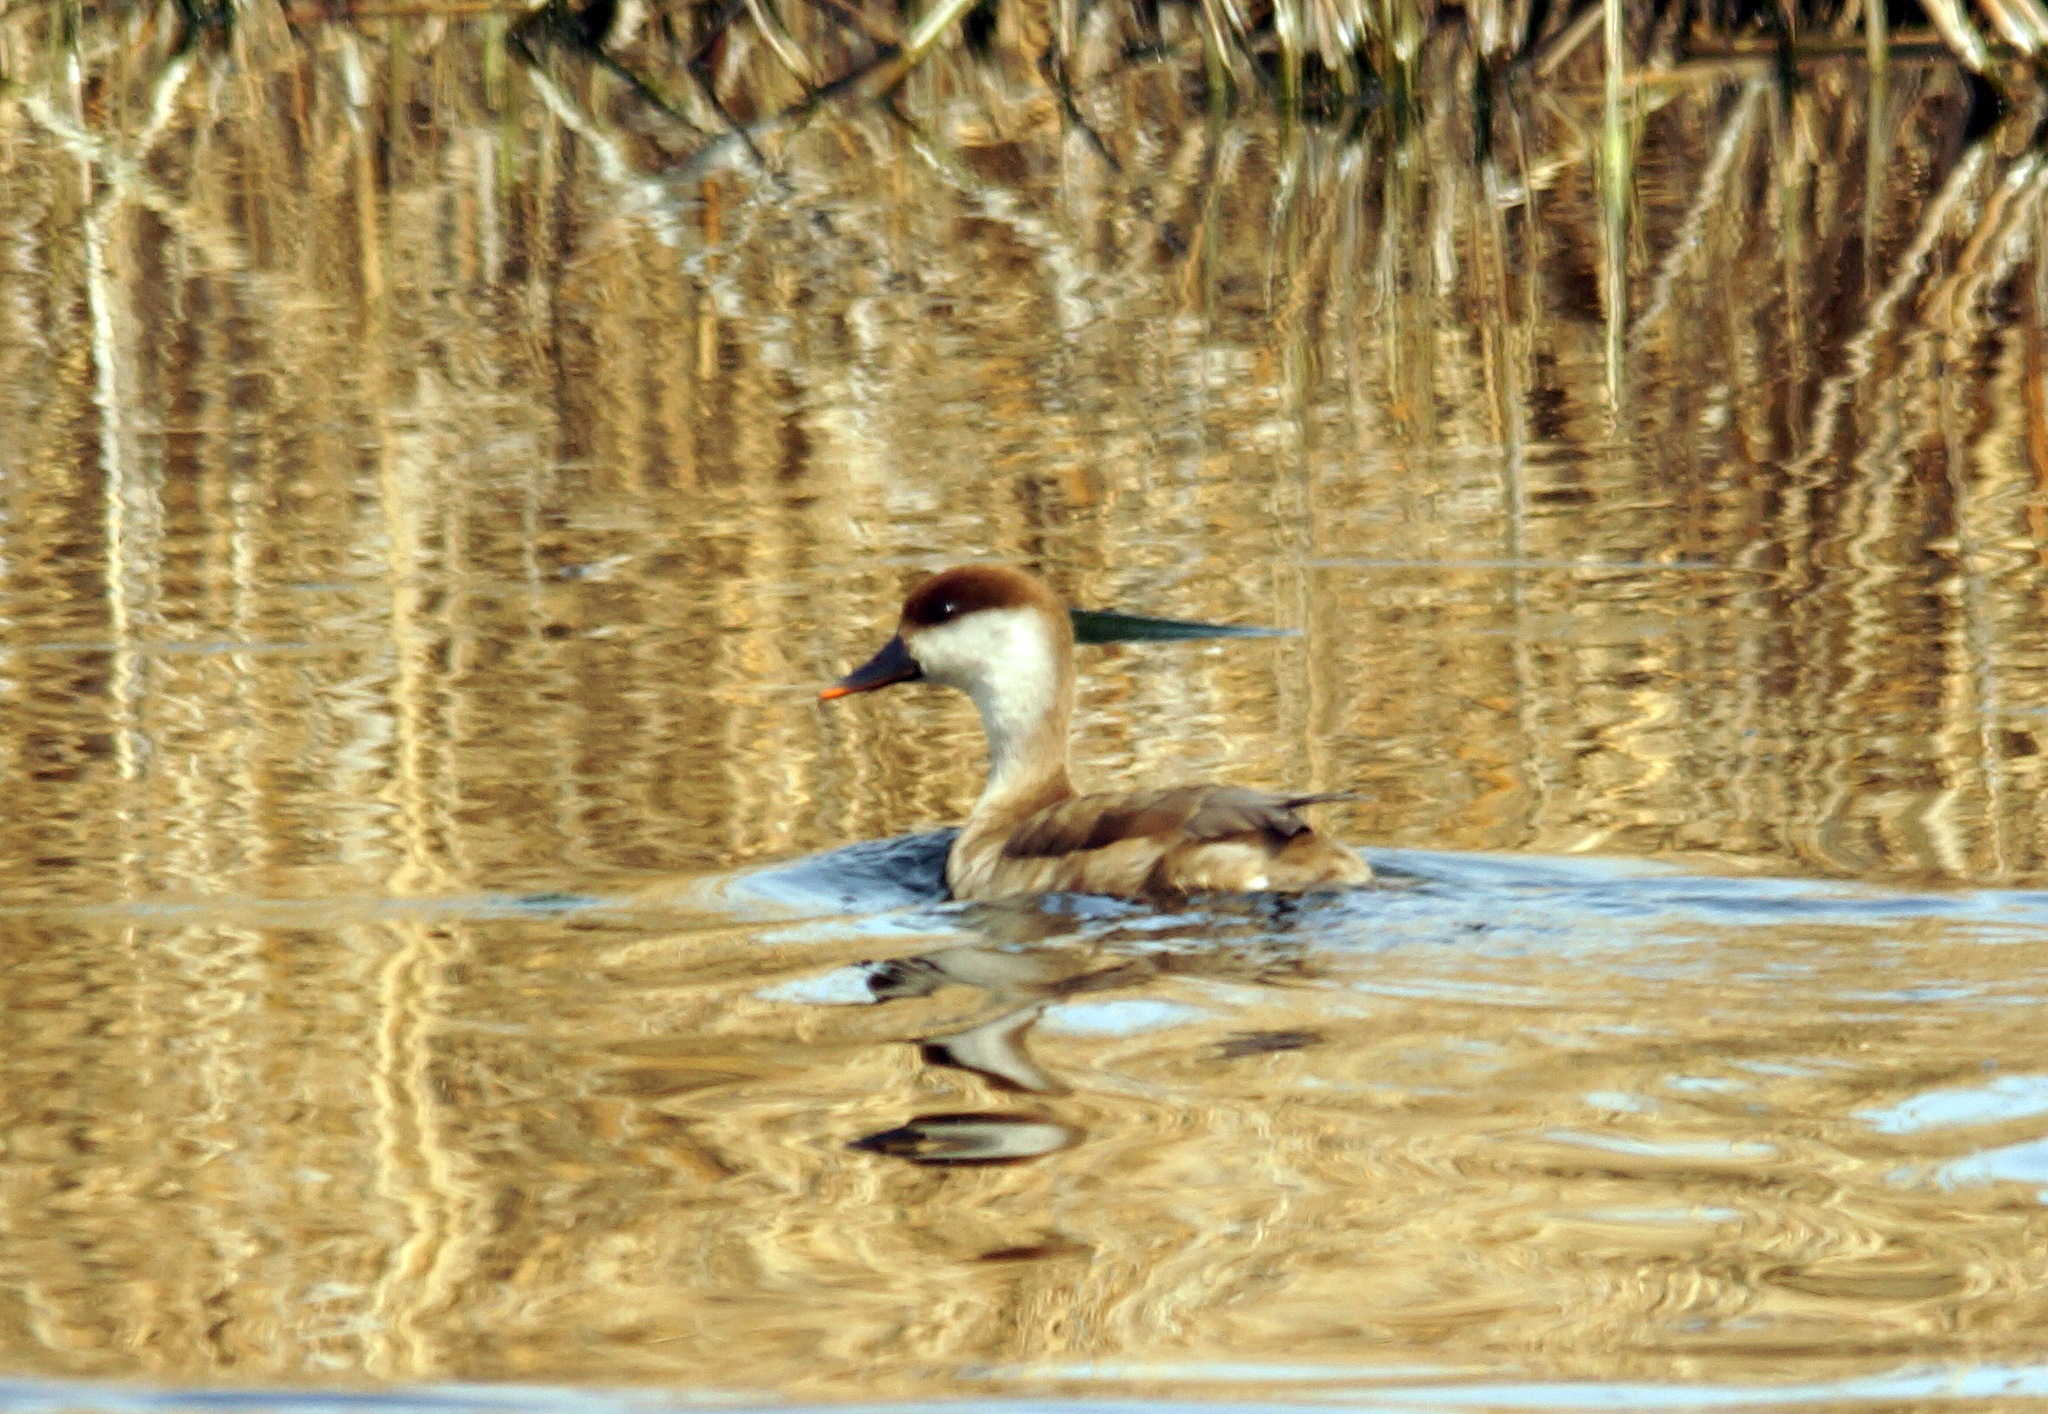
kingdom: Animalia
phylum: Chordata
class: Aves
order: Anseriformes
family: Anatidae
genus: Netta
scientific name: Netta rufina
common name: Red-crested pochard
